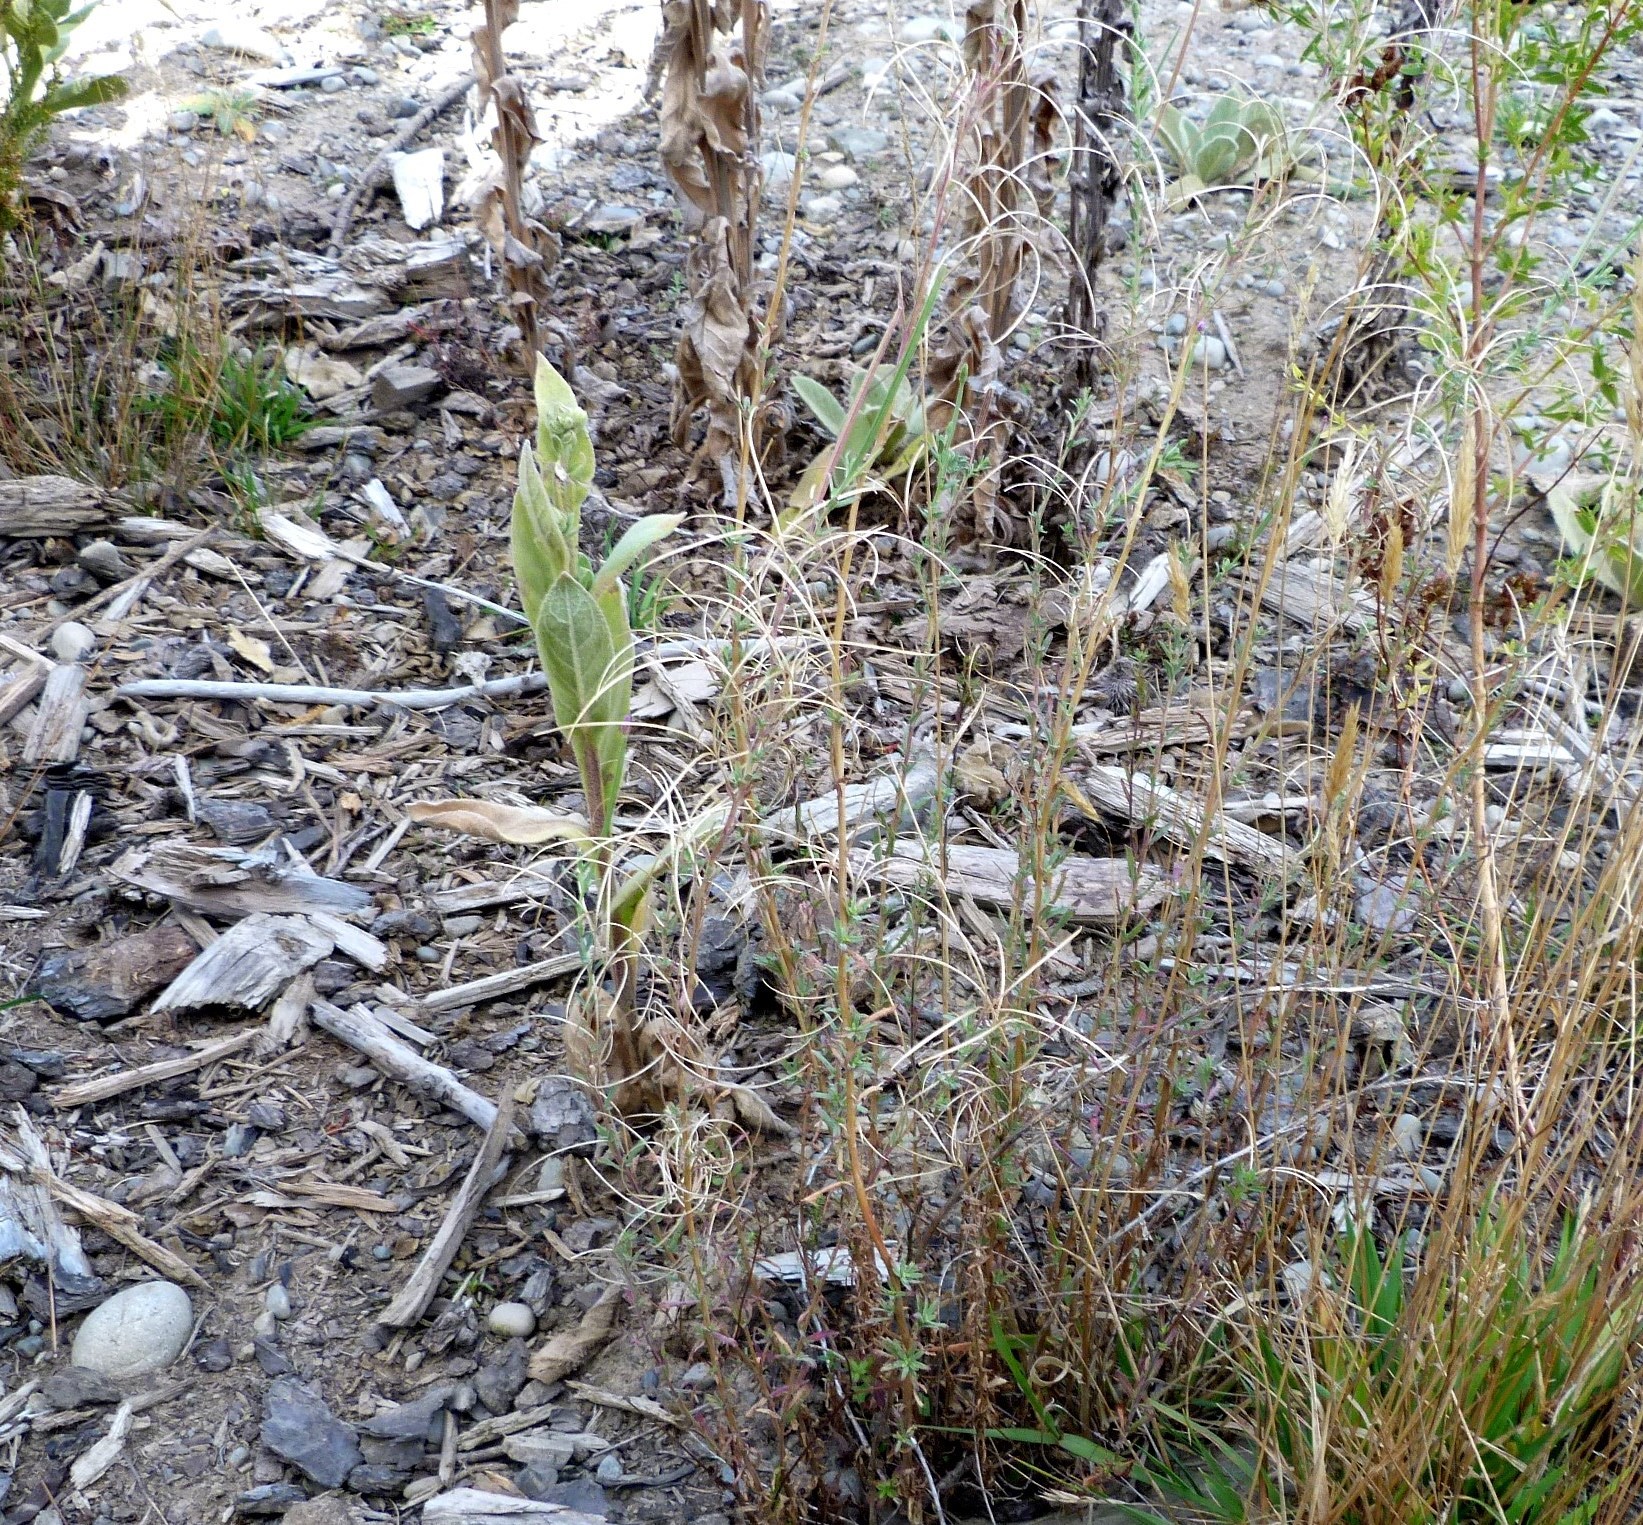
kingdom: Plantae
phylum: Tracheophyta
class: Magnoliopsida
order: Myrtales
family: Onagraceae
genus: Epilobium
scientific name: Epilobium billardierianum
